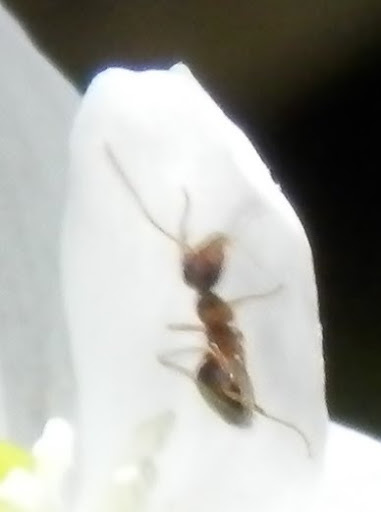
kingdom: Animalia
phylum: Arthropoda
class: Insecta
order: Hymenoptera
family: Formicidae
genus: Prenolepis
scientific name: Prenolepis imparis
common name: Small honey ant
